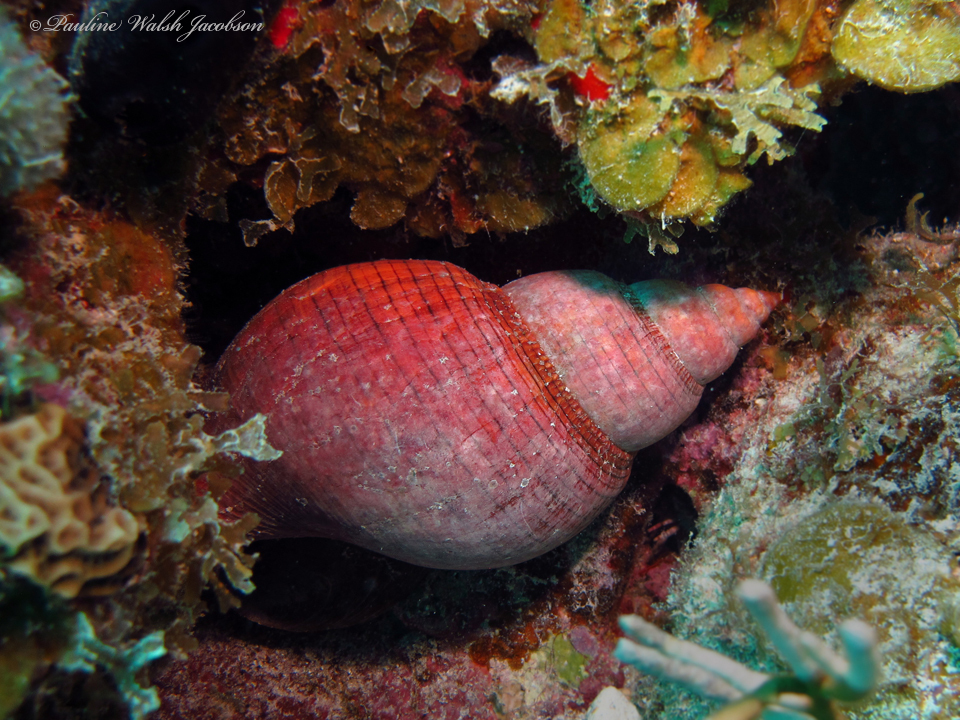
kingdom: Animalia
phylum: Mollusca
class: Gastropoda
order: Neogastropoda
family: Fasciolariidae
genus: Fasciolaria
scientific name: Fasciolaria tulipa
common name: True tulip
